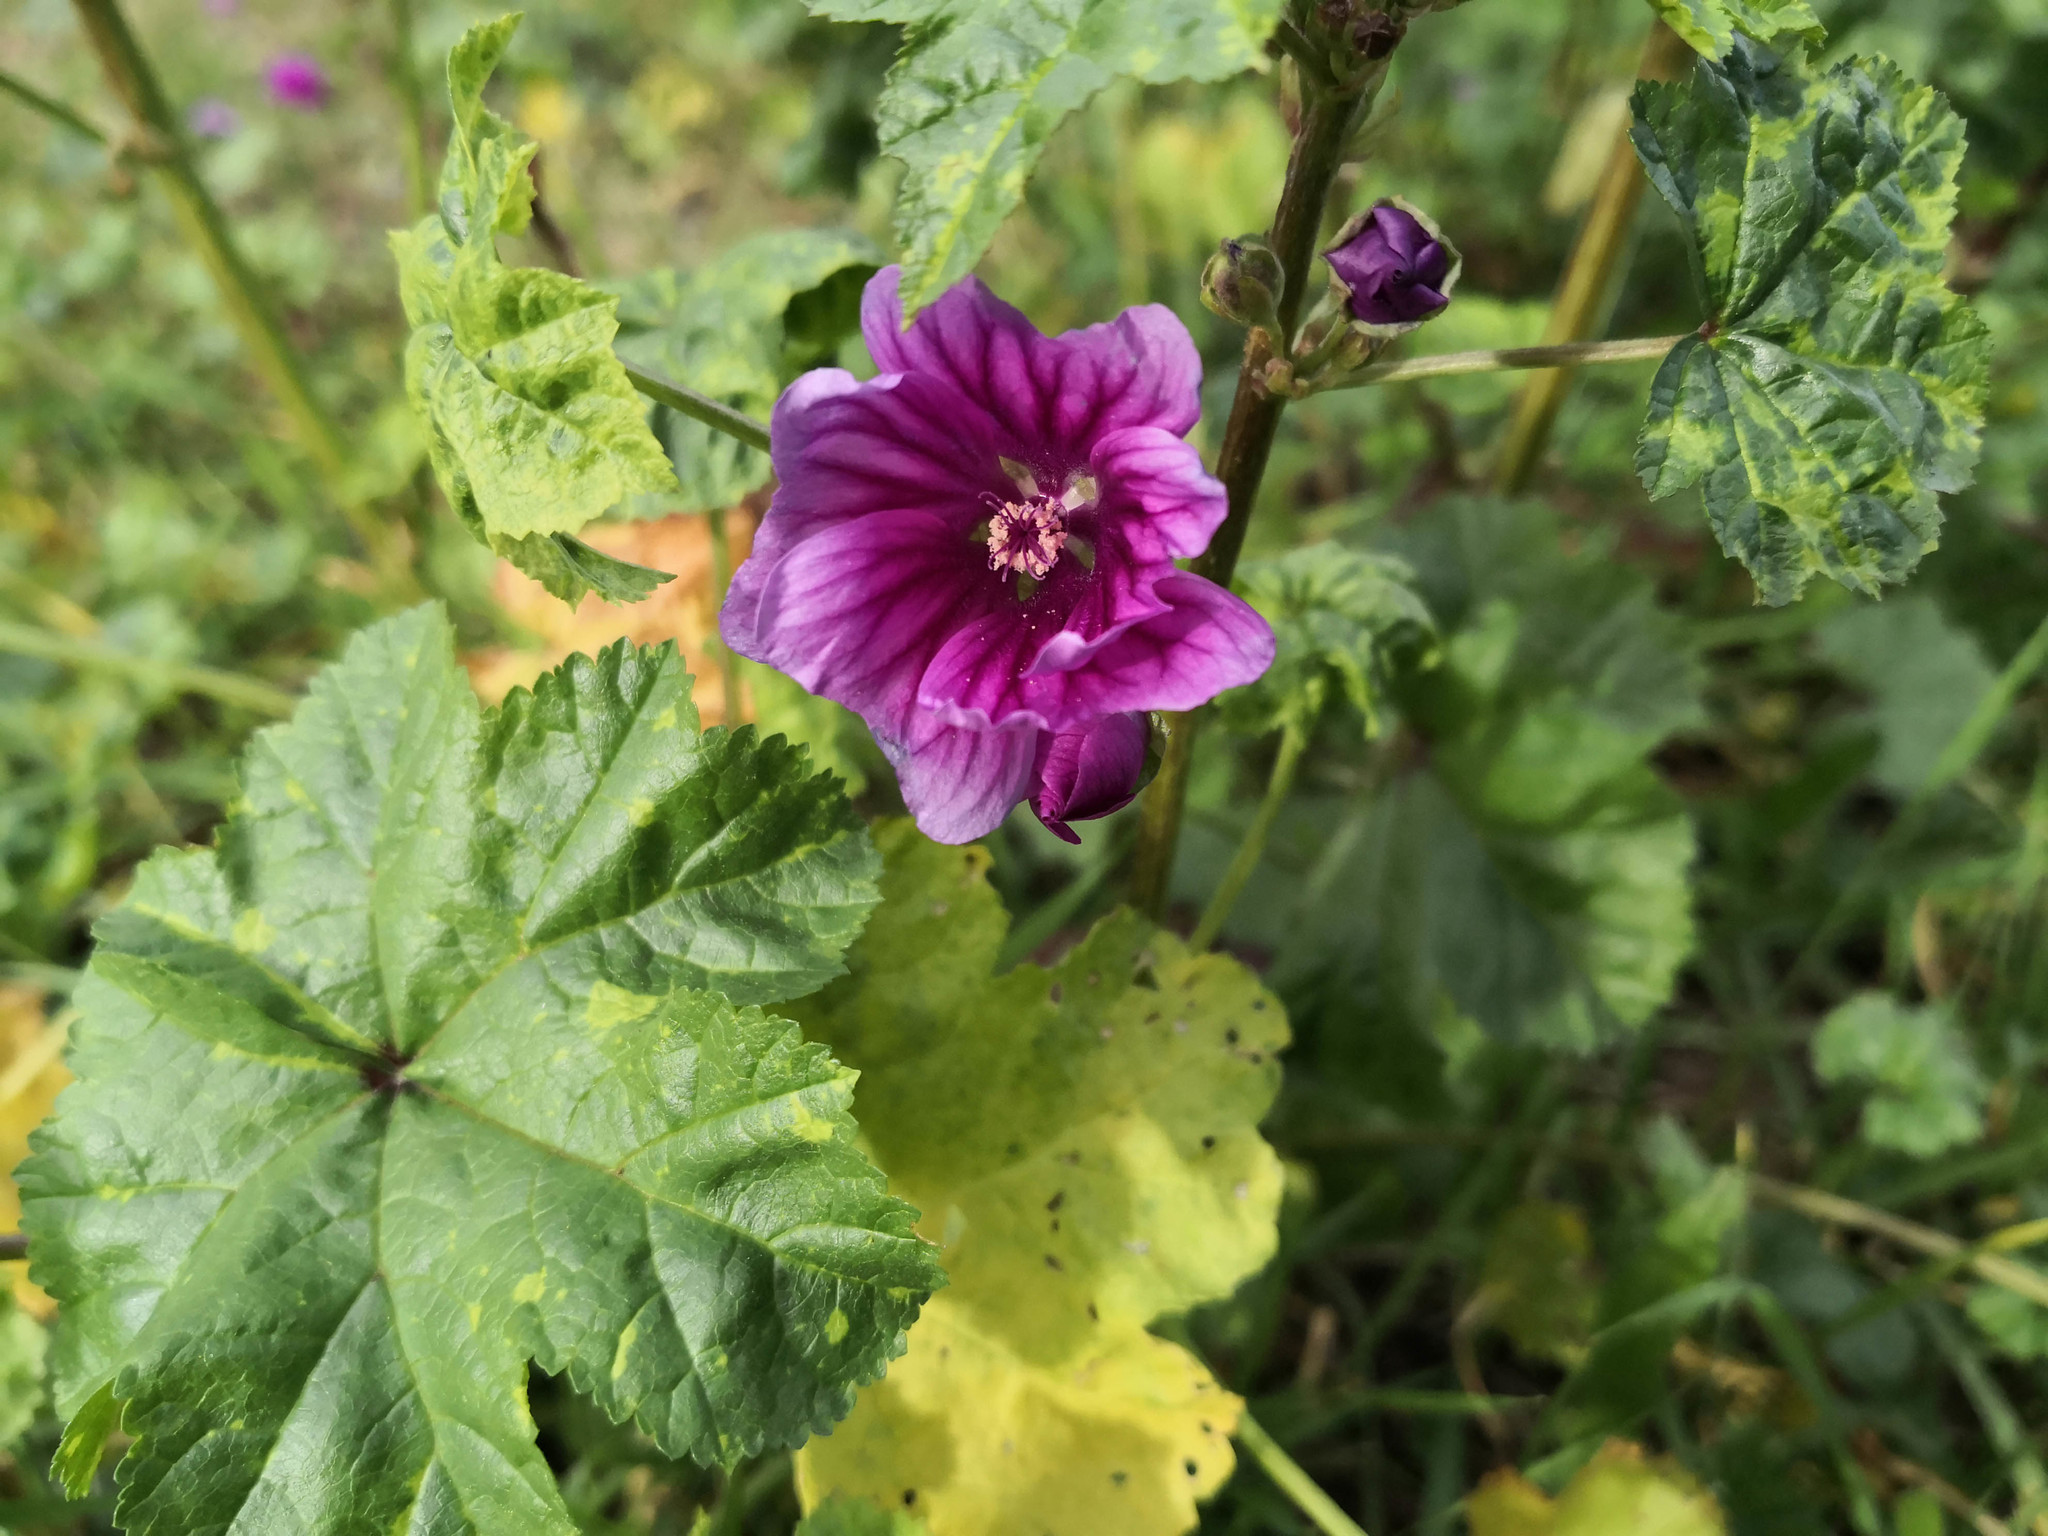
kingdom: Plantae
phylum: Tracheophyta
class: Magnoliopsida
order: Malvales
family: Malvaceae
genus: Malva
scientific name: Malva sylvestris
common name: Common mallow
